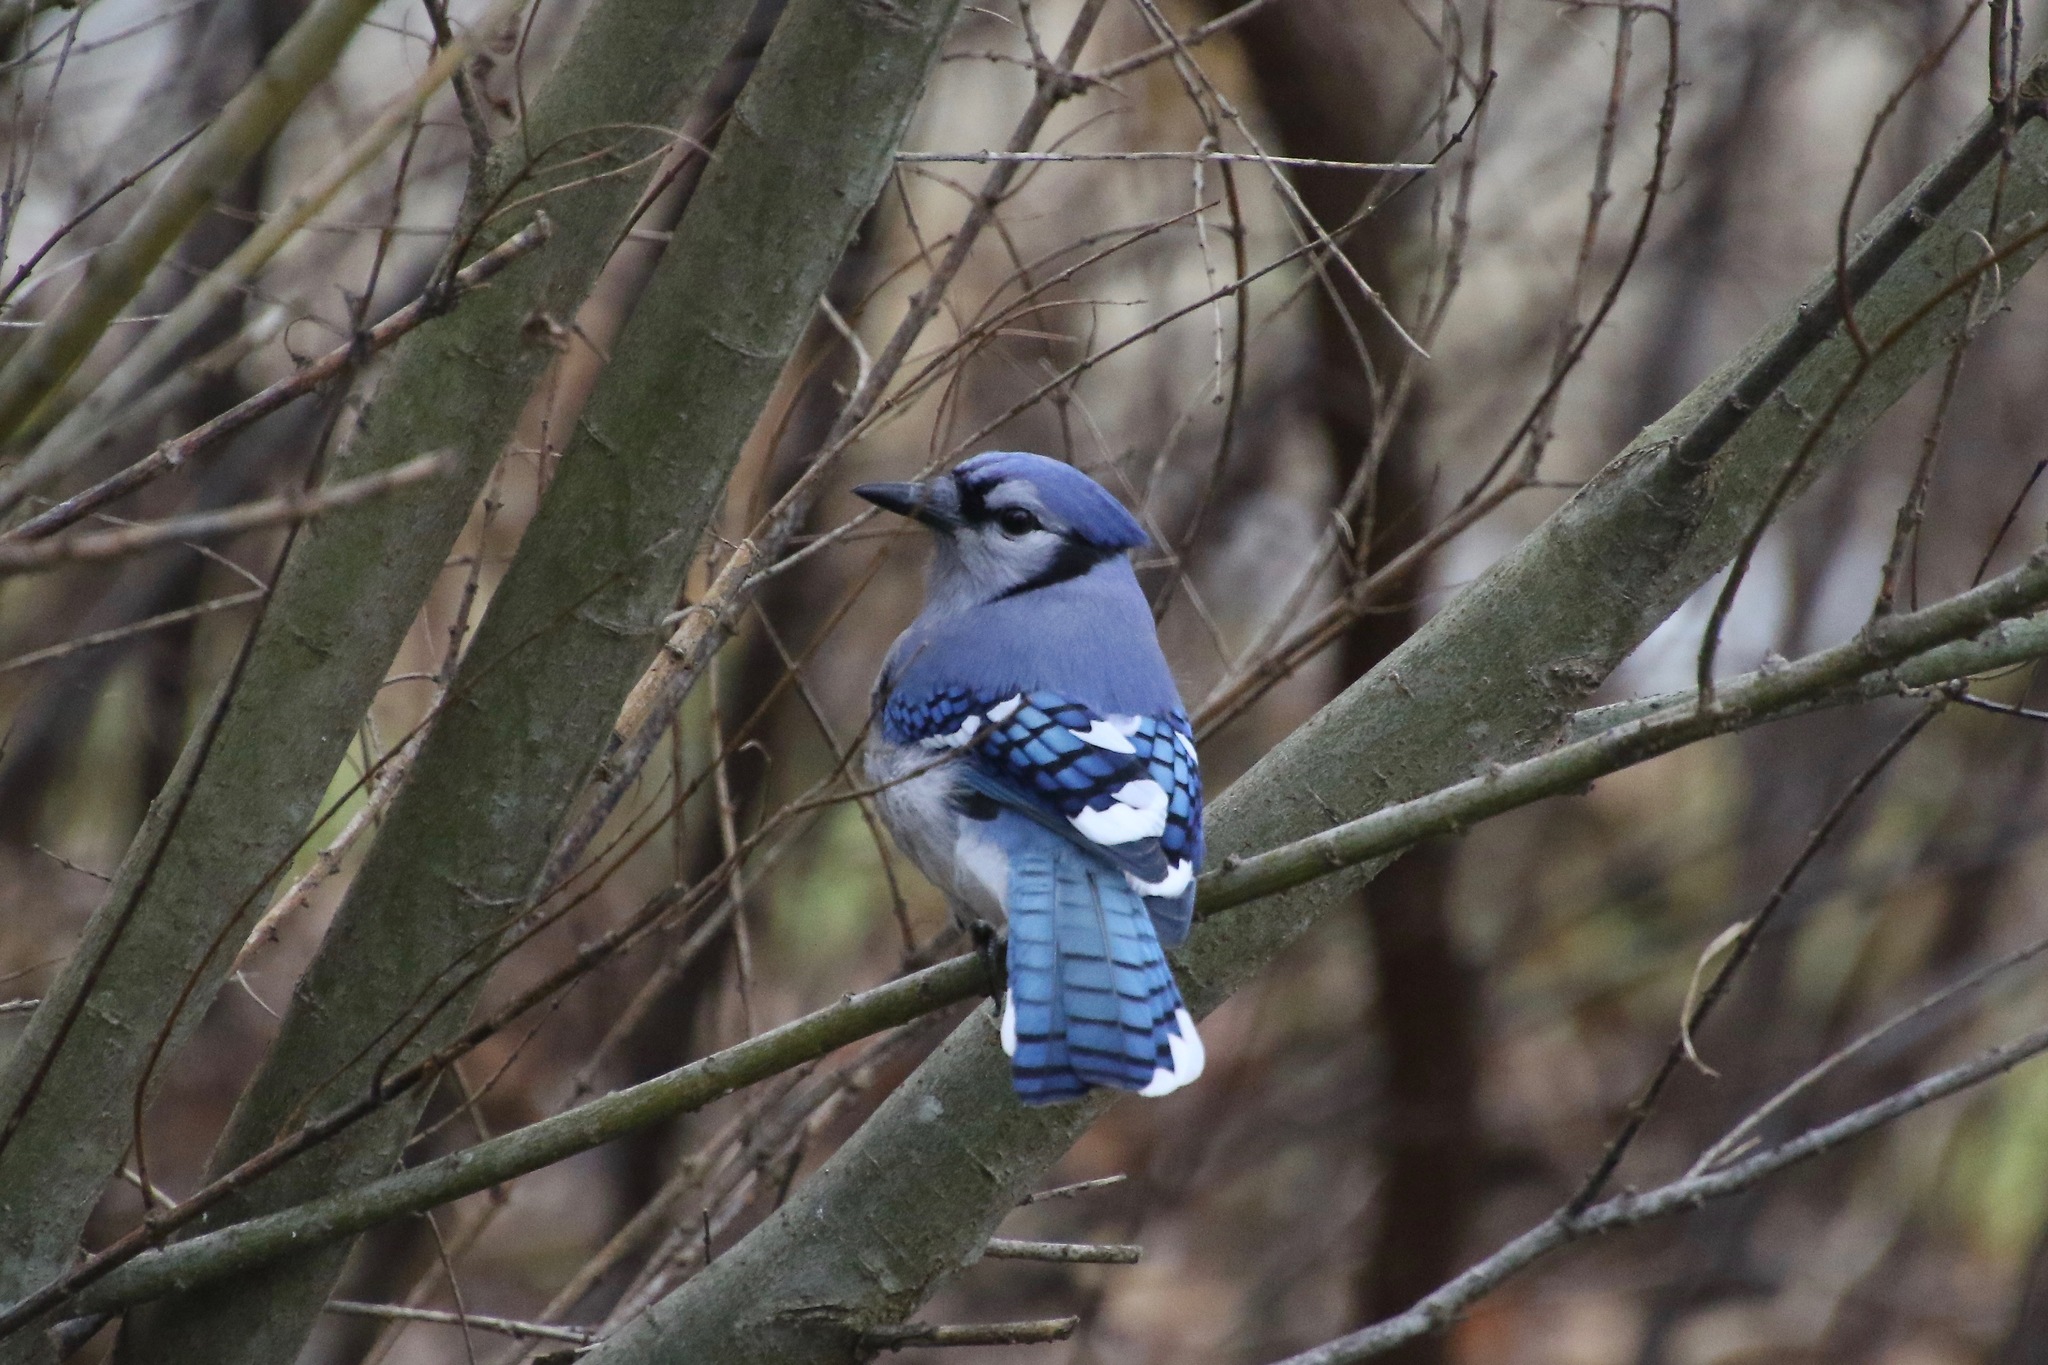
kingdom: Animalia
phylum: Chordata
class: Aves
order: Passeriformes
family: Corvidae
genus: Cyanocitta
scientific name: Cyanocitta cristata
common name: Blue jay
